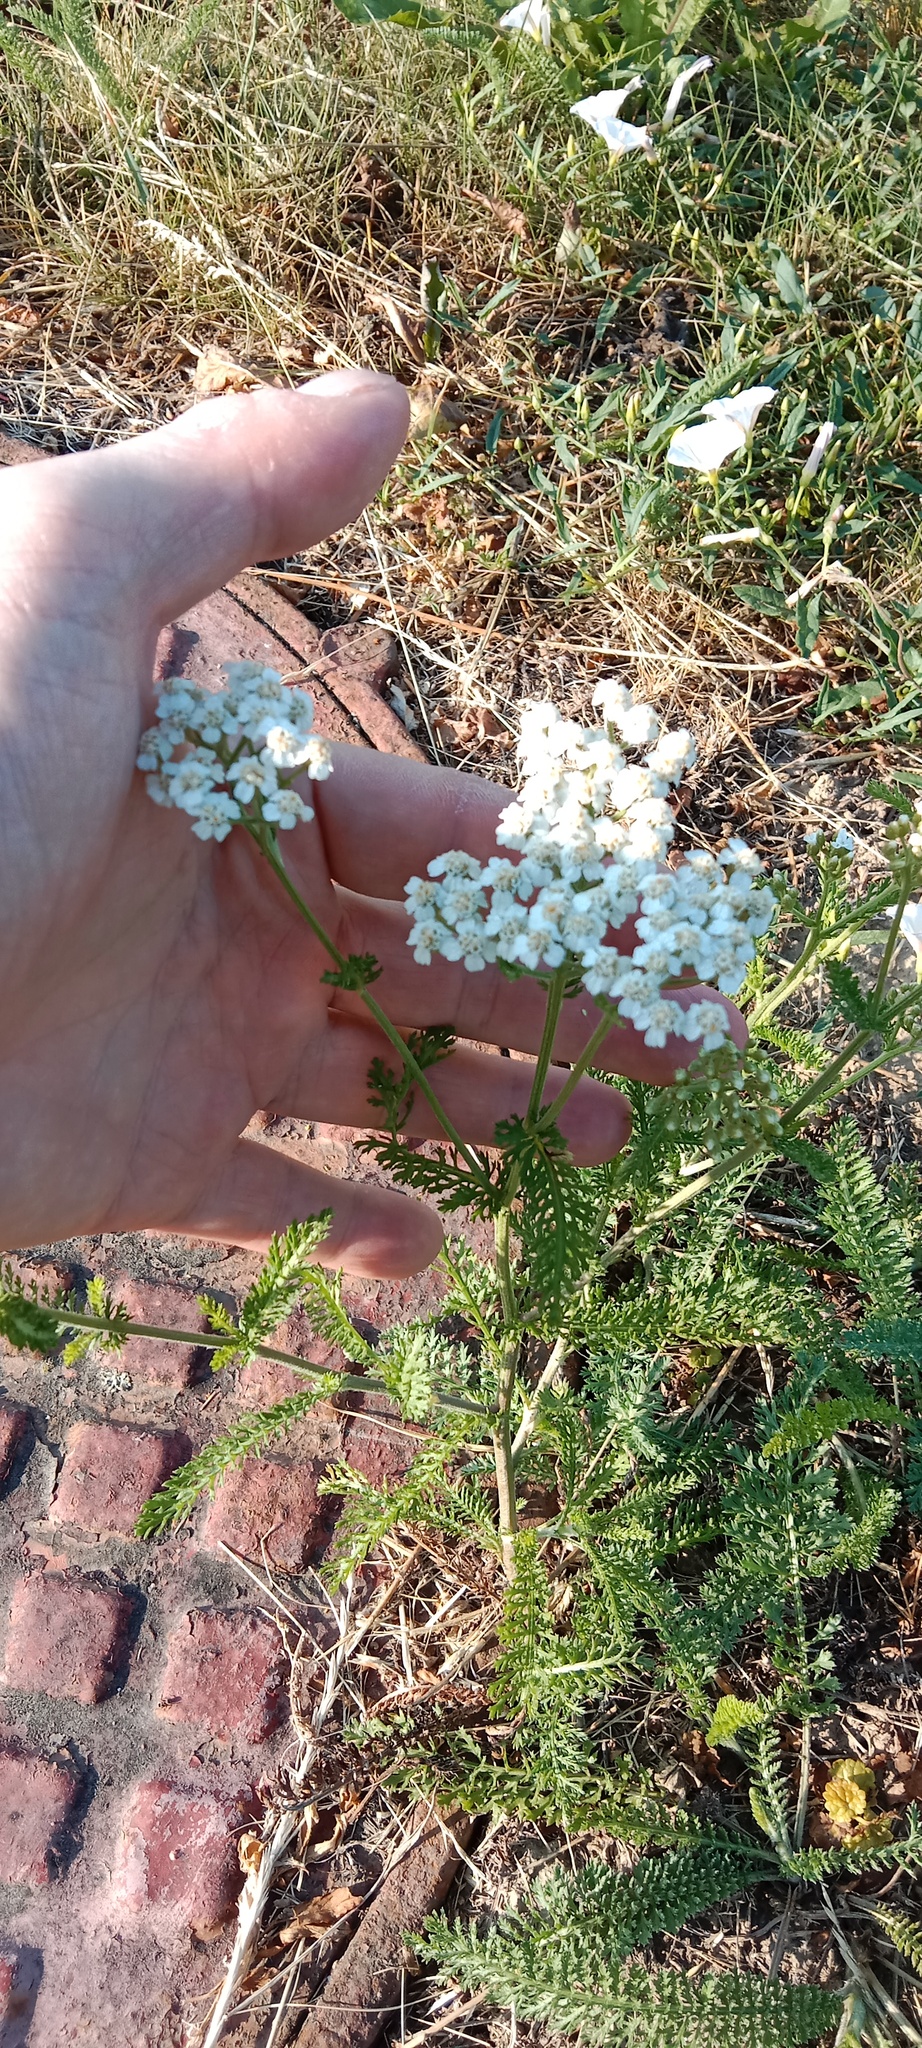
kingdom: Plantae
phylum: Tracheophyta
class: Magnoliopsida
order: Asterales
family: Asteraceae
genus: Achillea
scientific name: Achillea millefolium
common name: Yarrow
